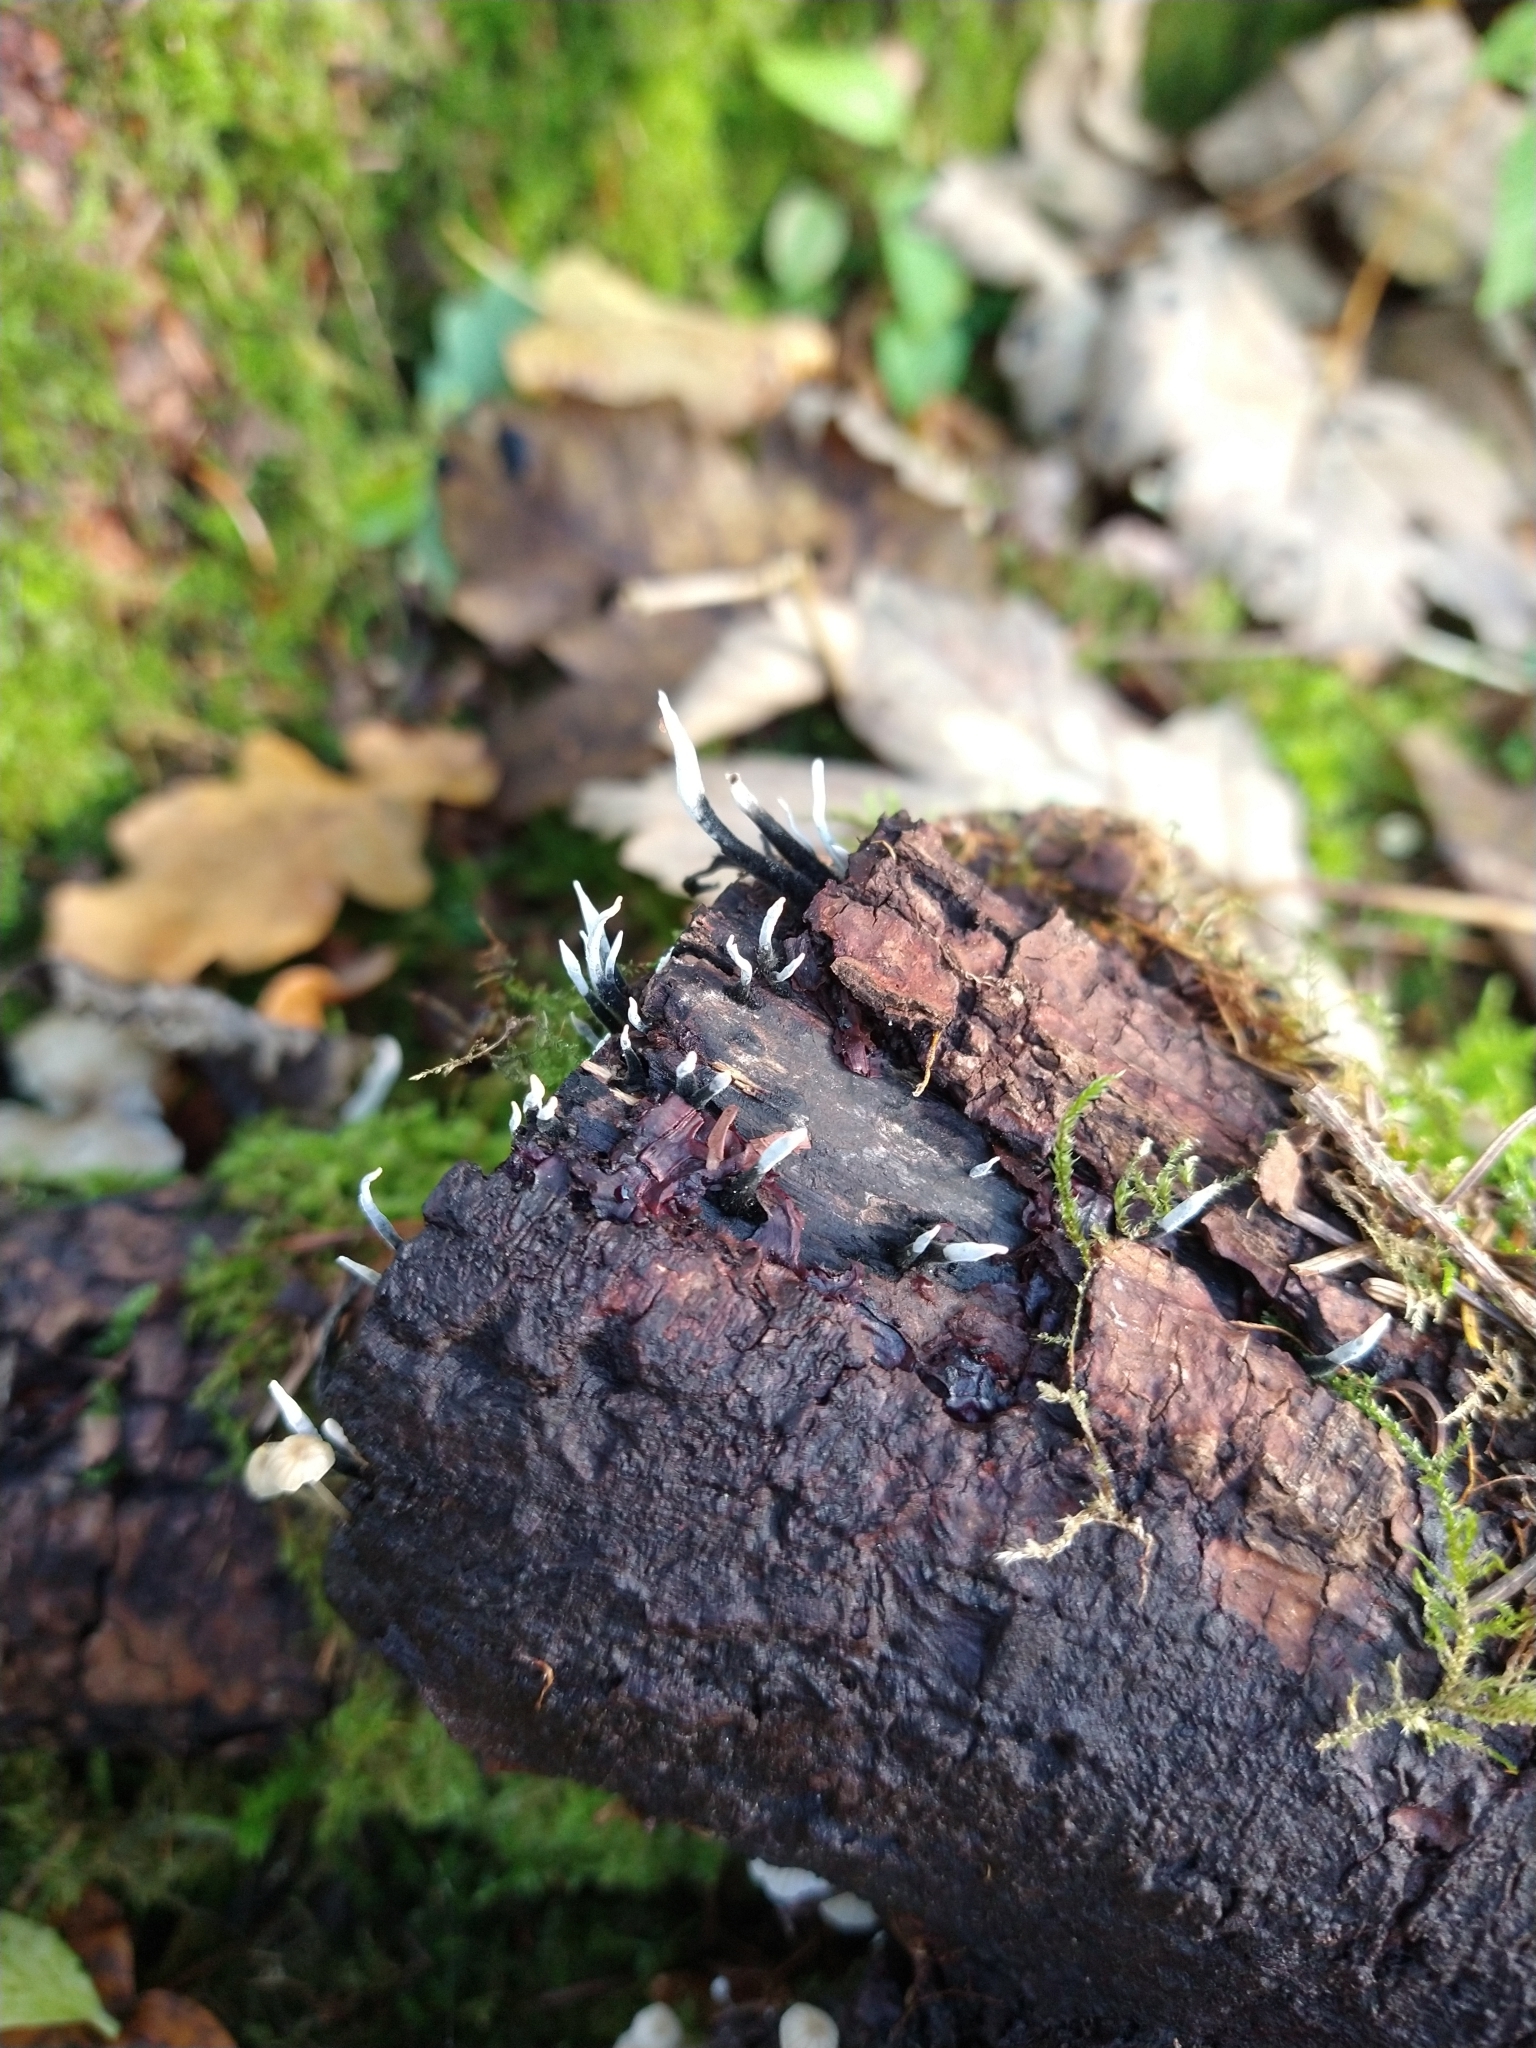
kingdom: Fungi
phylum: Ascomycota
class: Sordariomycetes
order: Xylariales
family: Xylariaceae
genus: Xylaria
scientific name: Xylaria hypoxylon
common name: Candle-snuff fungus
